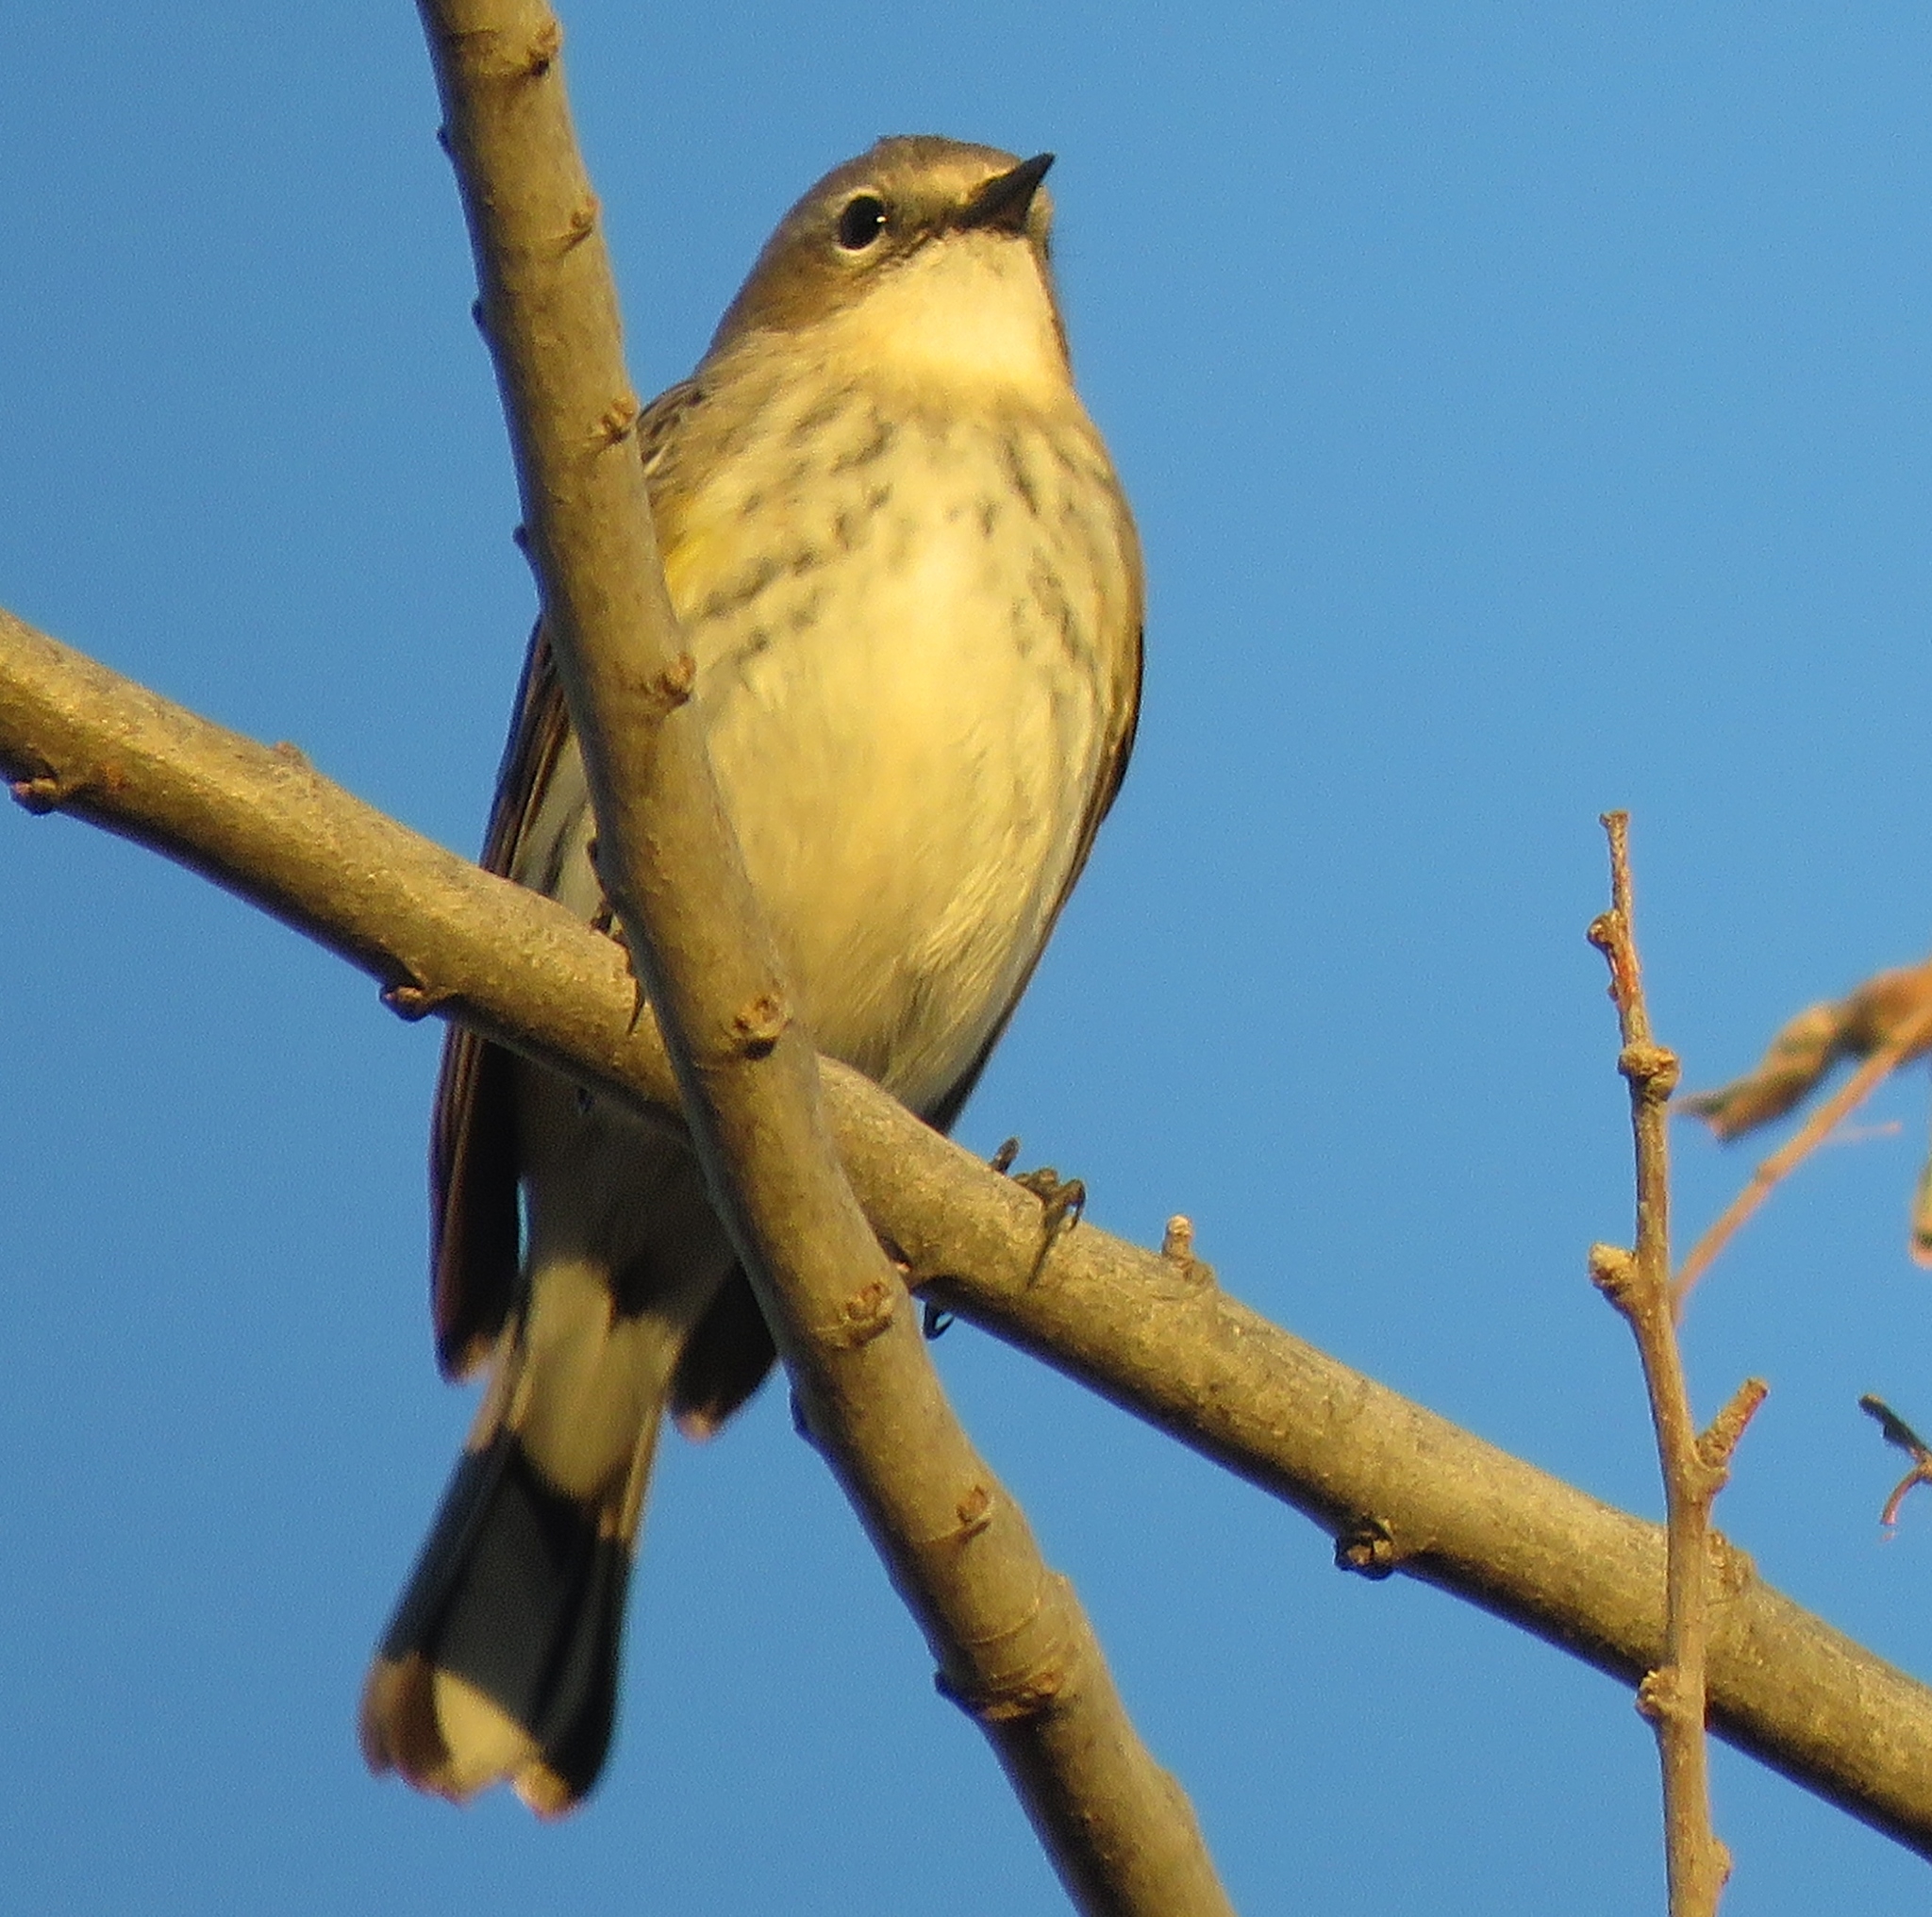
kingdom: Animalia
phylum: Chordata
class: Aves
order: Passeriformes
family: Parulidae
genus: Setophaga
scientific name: Setophaga coronata
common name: Myrtle warbler
